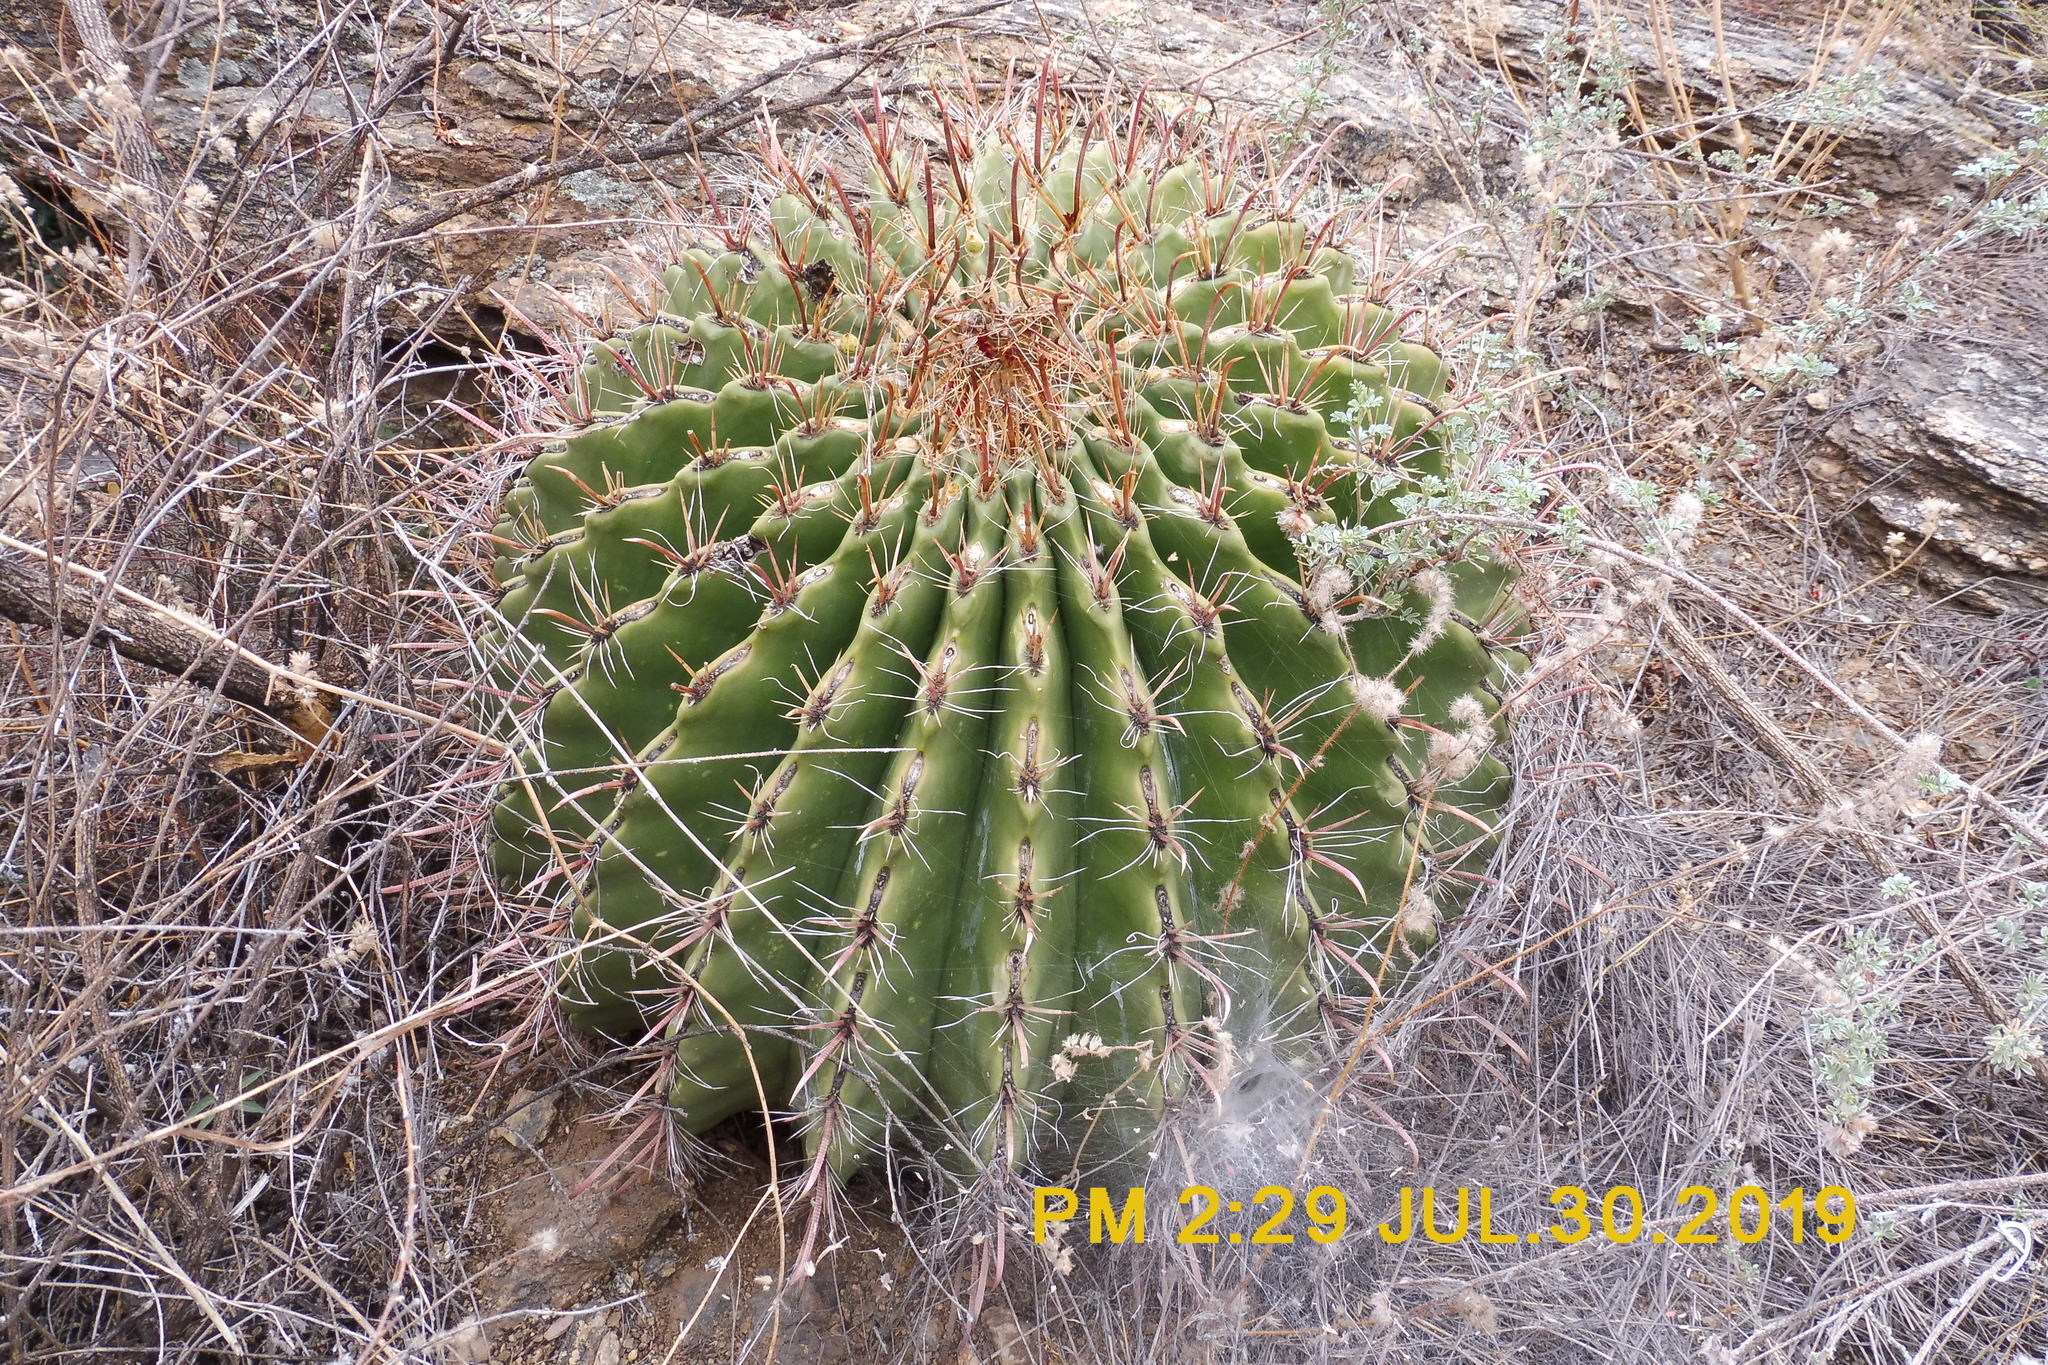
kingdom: Plantae
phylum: Tracheophyta
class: Magnoliopsida
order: Caryophyllales
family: Cactaceae
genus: Ferocactus
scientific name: Ferocactus wislizeni
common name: Candy barrel cactus
